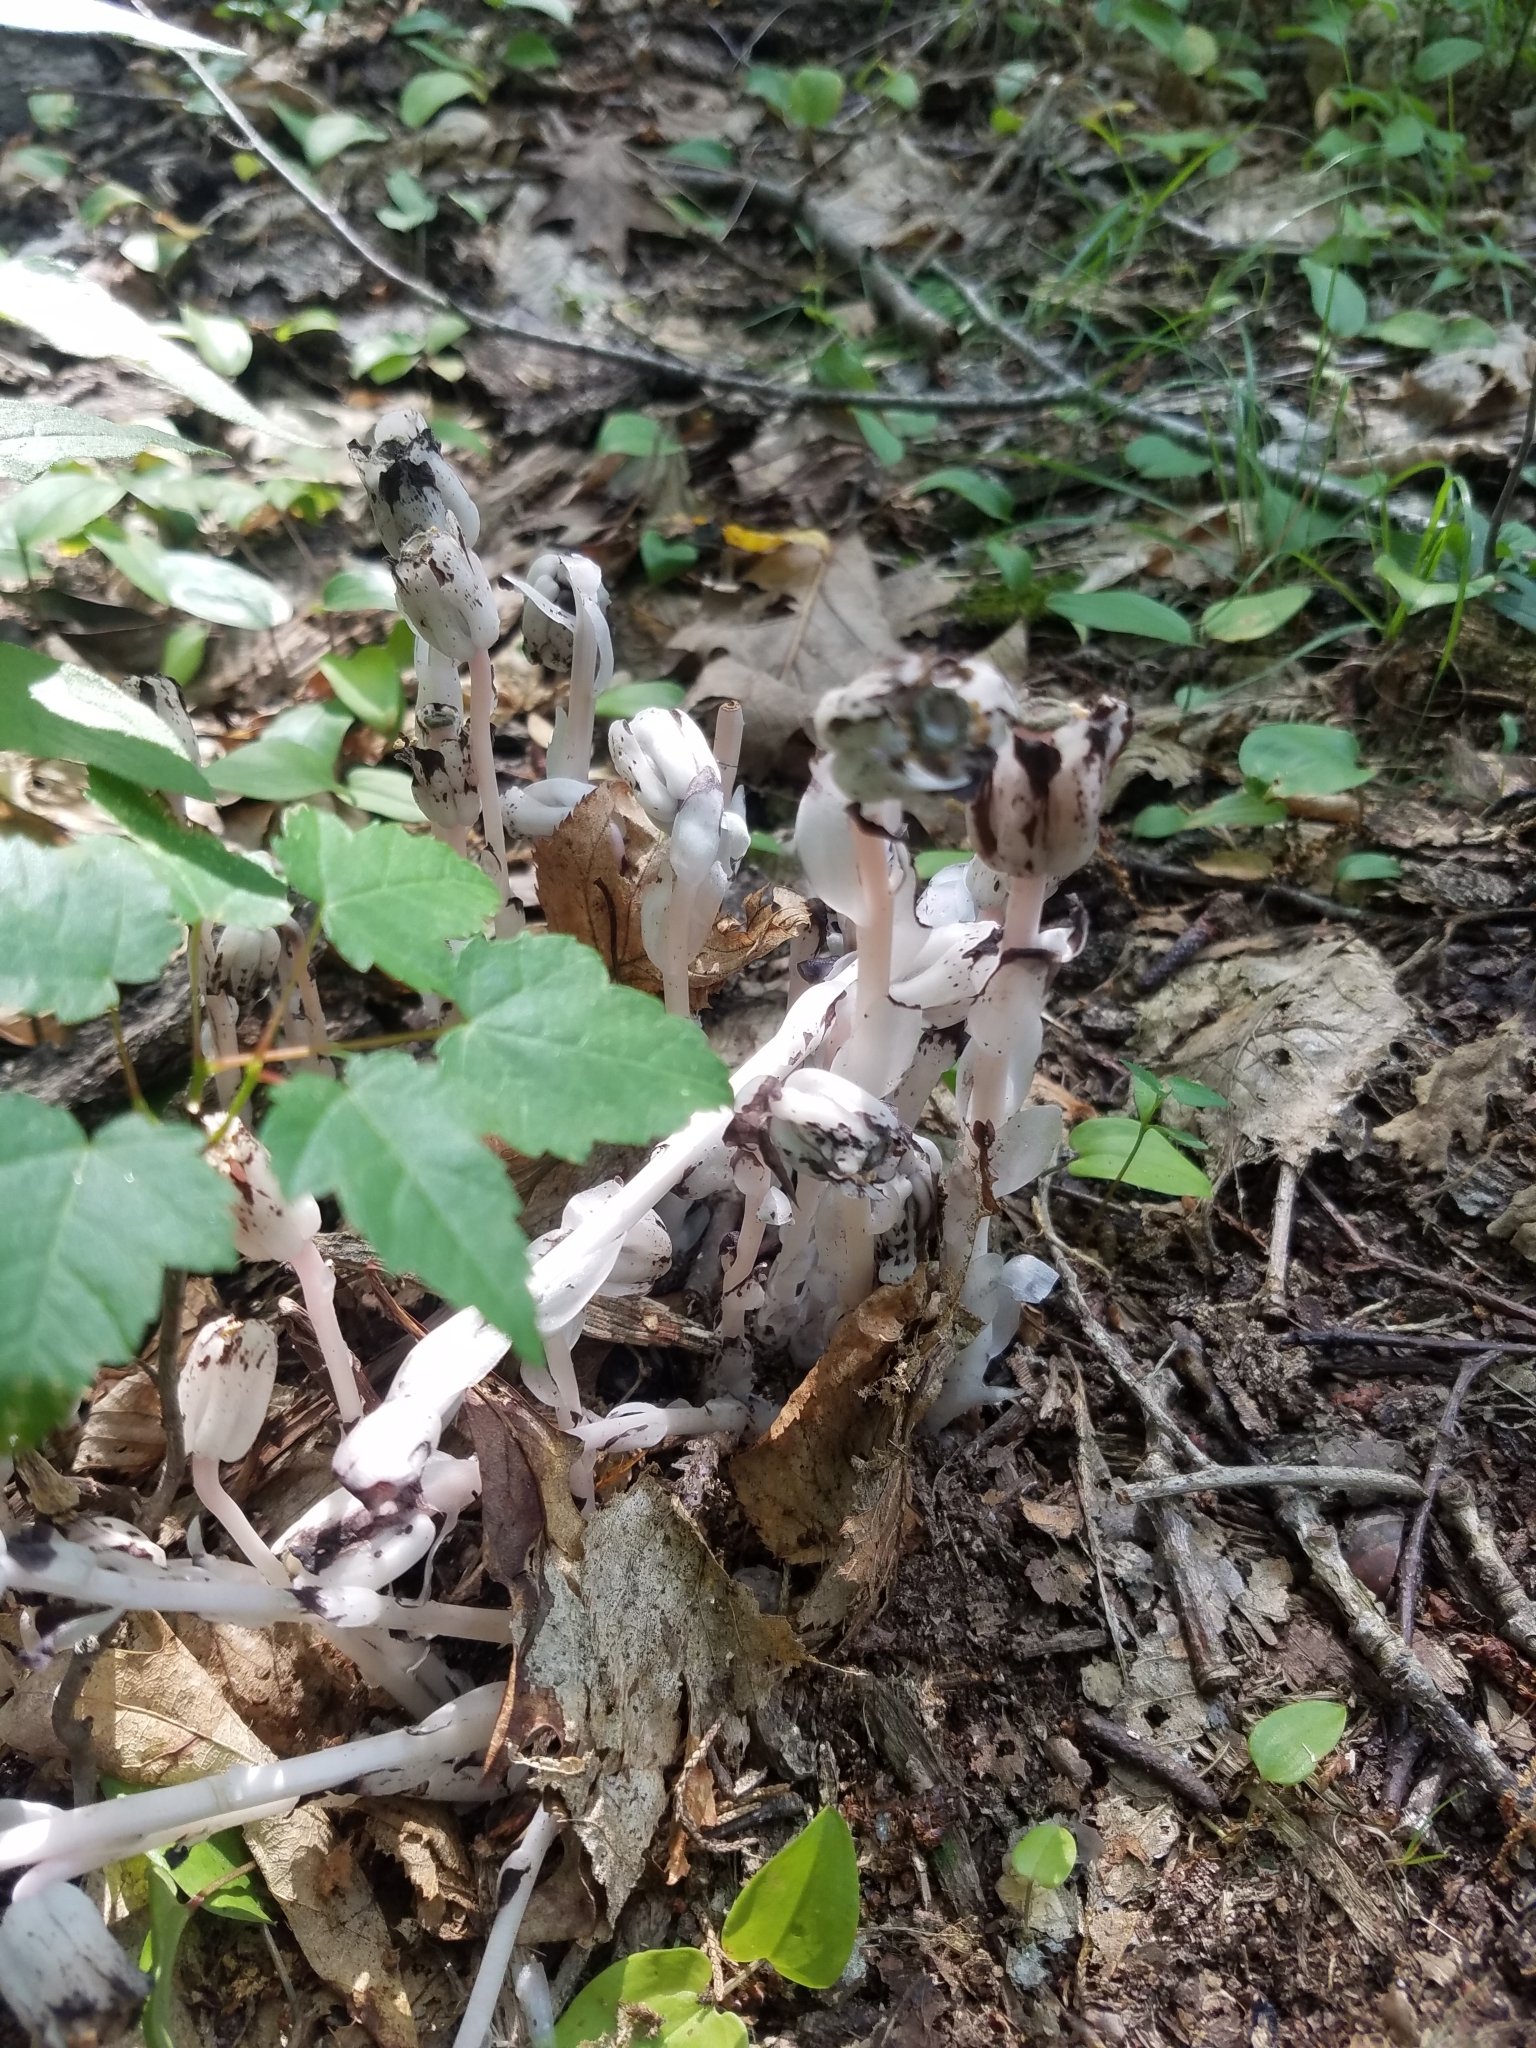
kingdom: Plantae
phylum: Tracheophyta
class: Magnoliopsida
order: Ericales
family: Ericaceae
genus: Monotropa
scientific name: Monotropa uniflora
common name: Convulsion root
